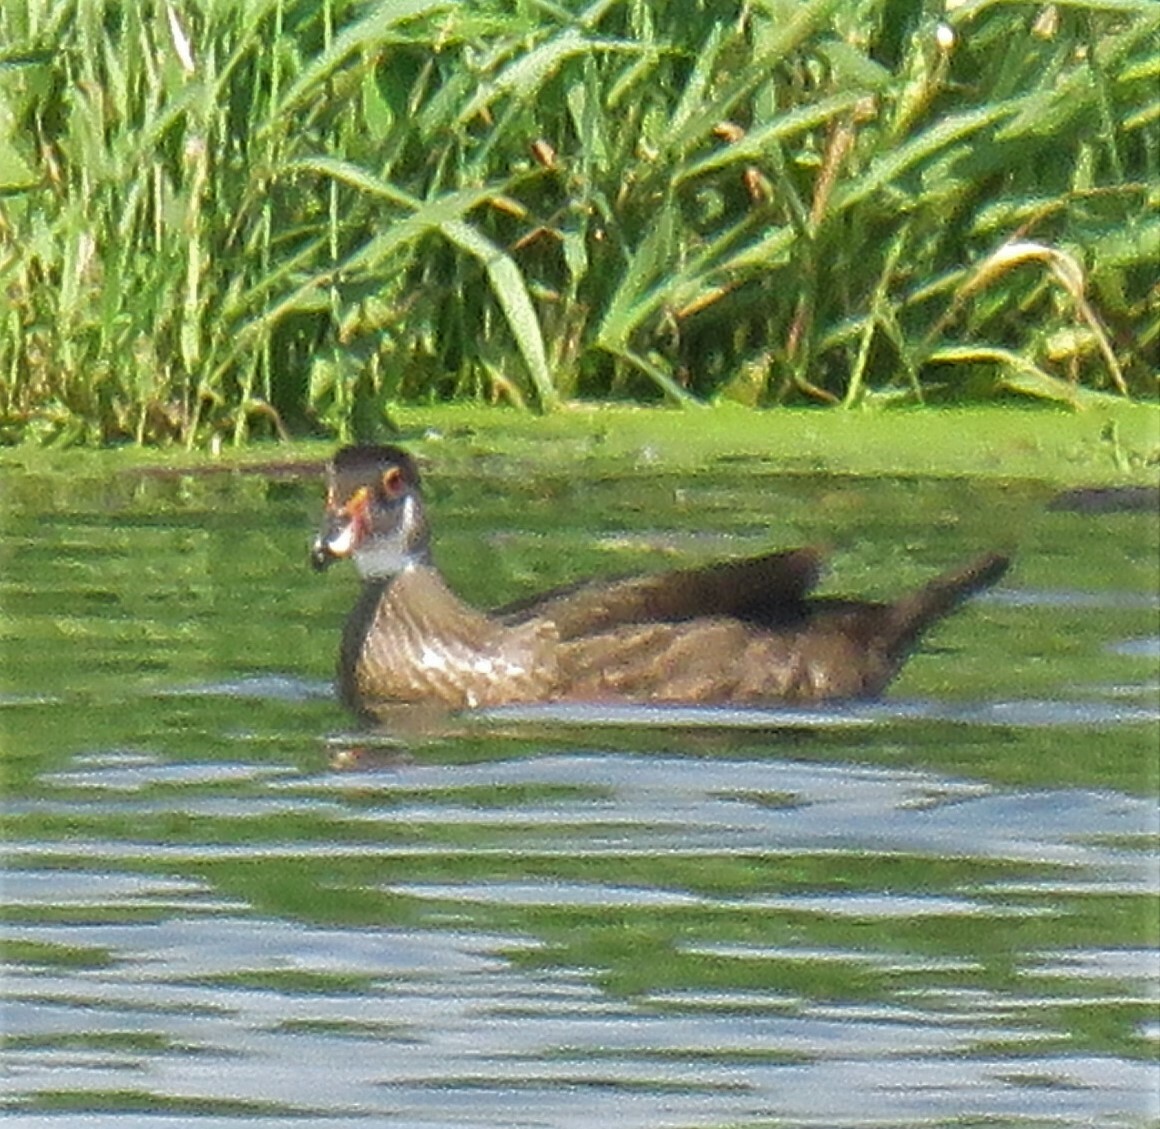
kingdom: Animalia
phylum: Chordata
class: Aves
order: Anseriformes
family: Anatidae
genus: Aix
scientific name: Aix sponsa
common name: Wood duck
